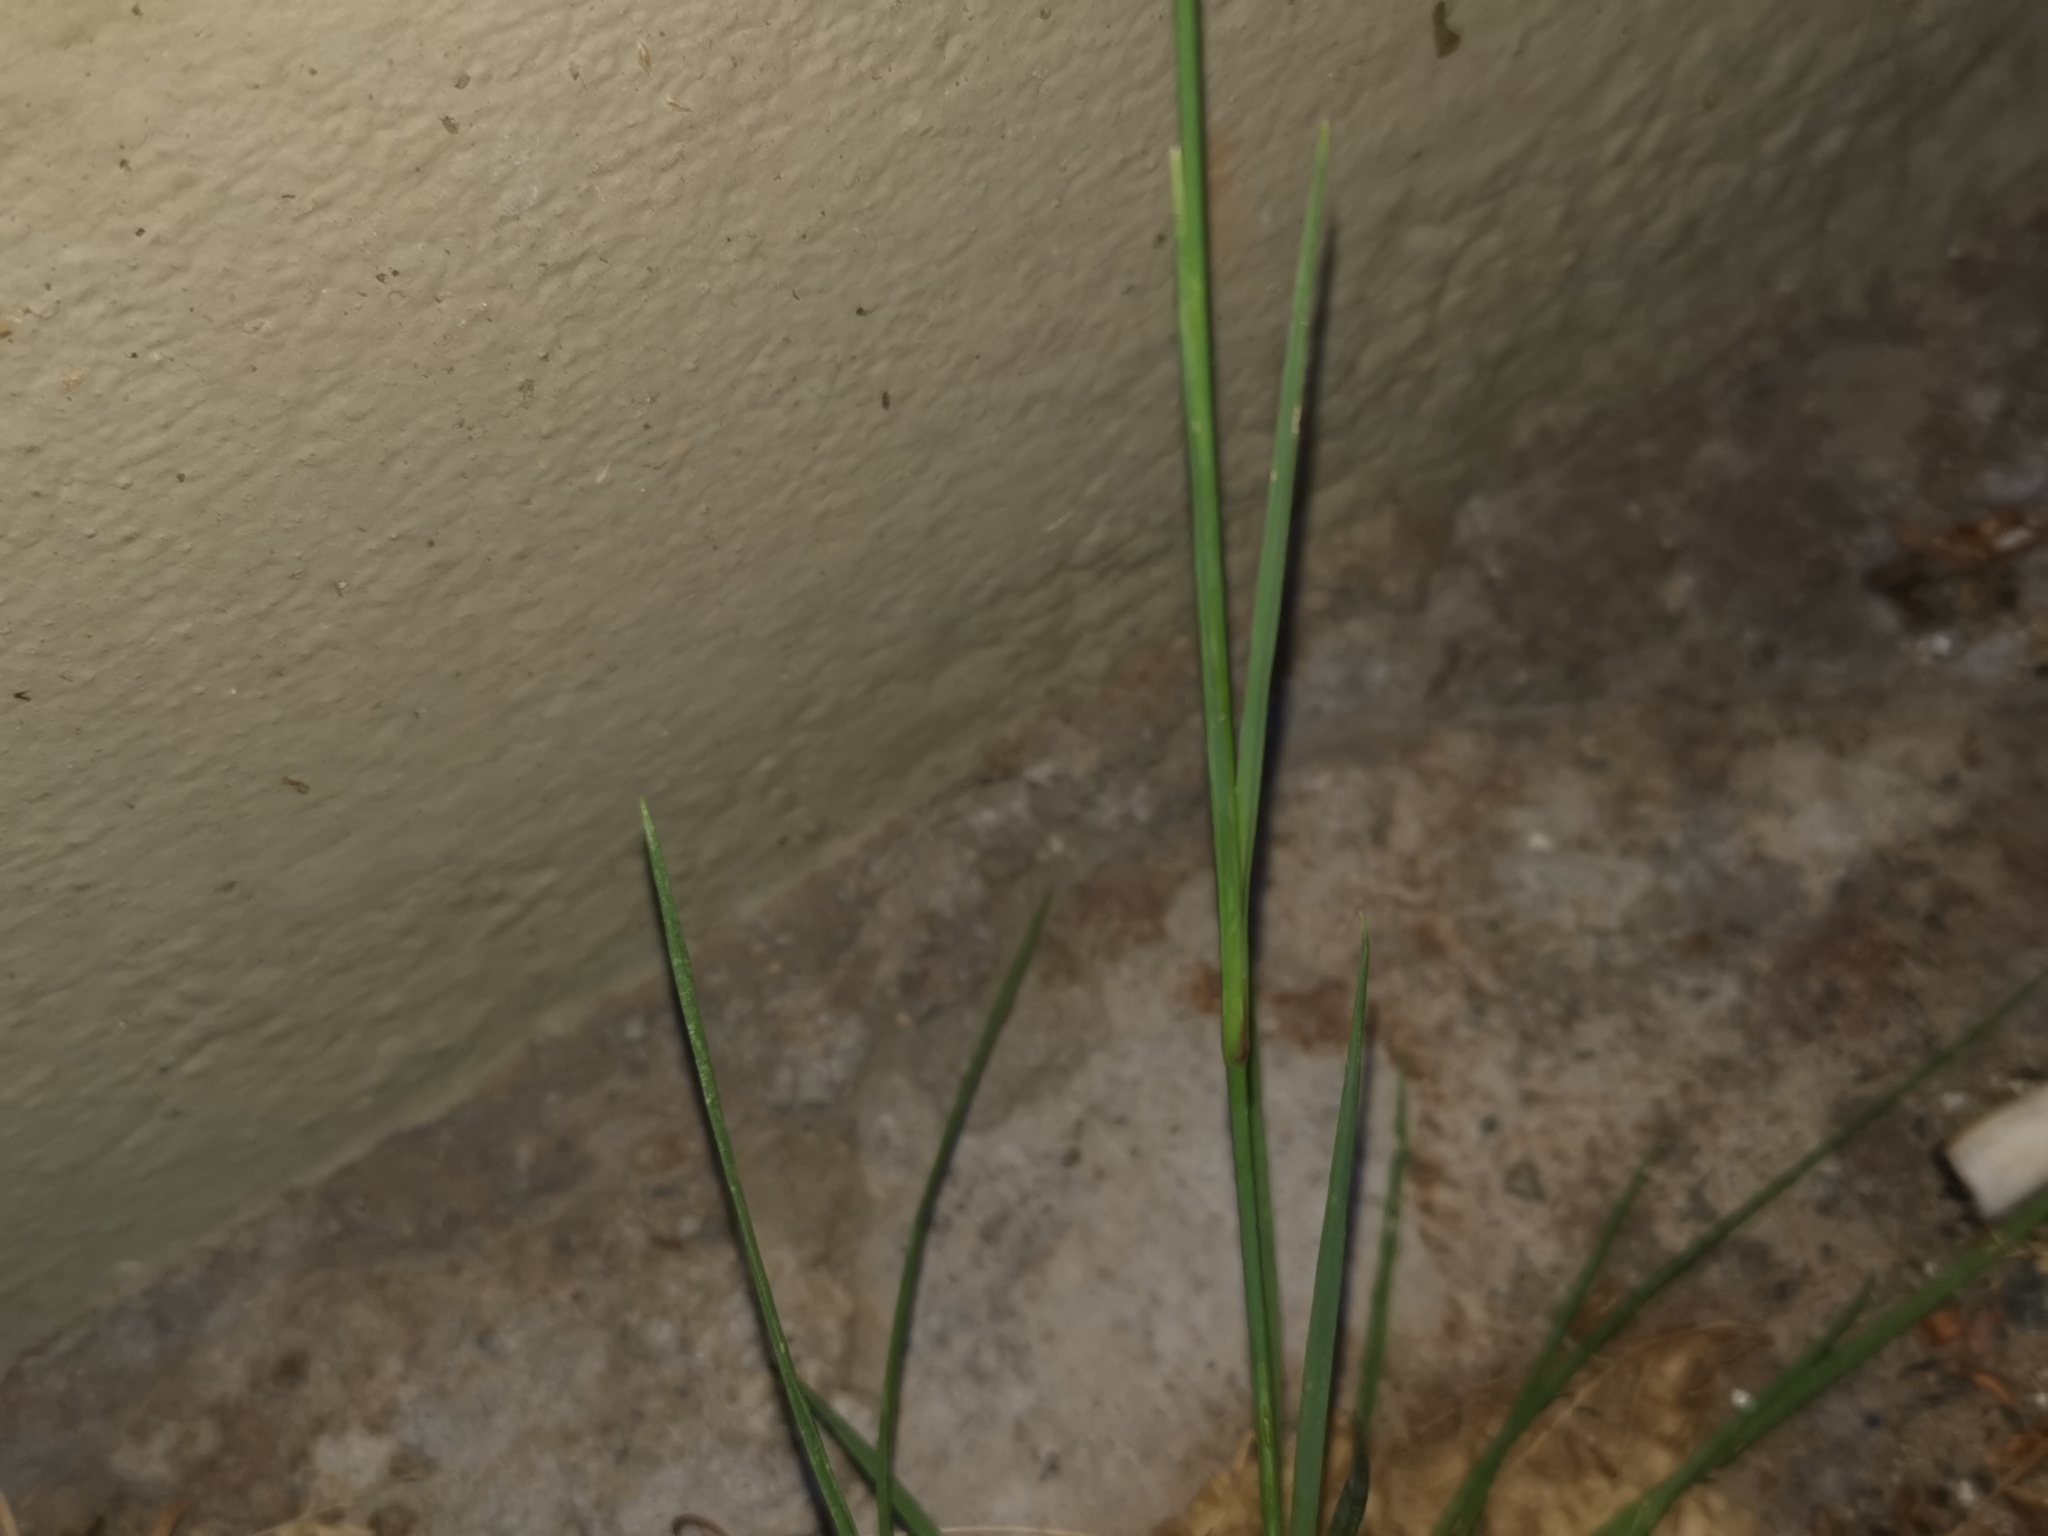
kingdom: Plantae
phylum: Tracheophyta
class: Magnoliopsida
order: Caryophyllales
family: Caryophyllaceae
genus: Dianthus
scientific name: Dianthus carthusianorum
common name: Carthusian pink
